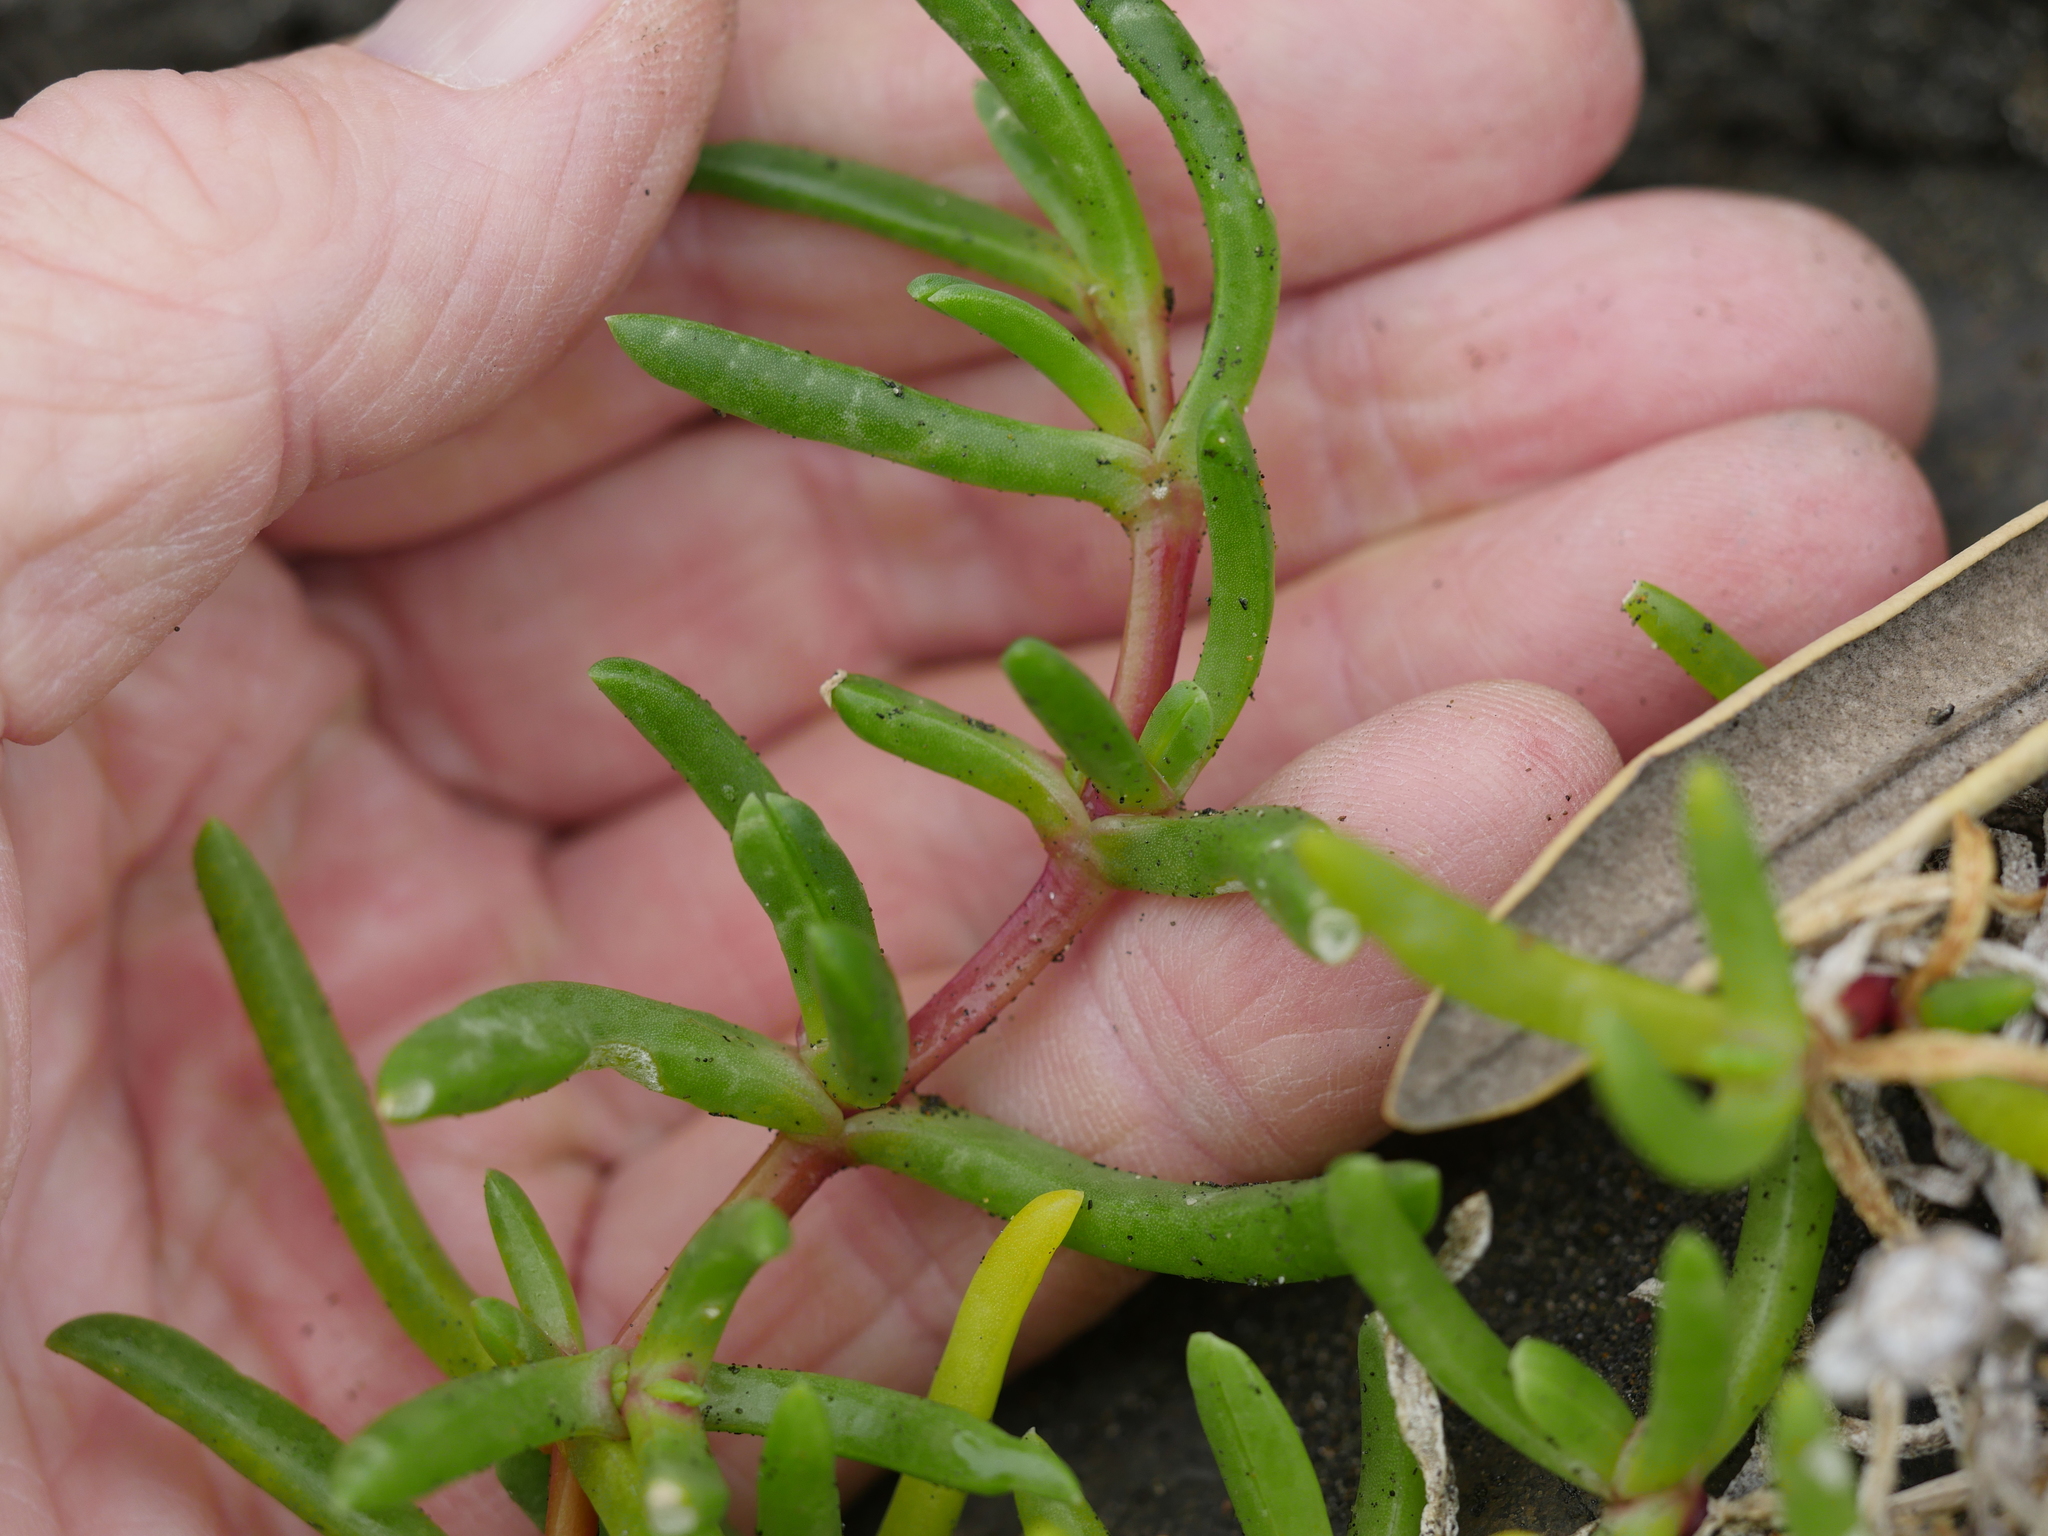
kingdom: Plantae
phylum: Tracheophyta
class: Magnoliopsida
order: Caryophyllales
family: Aizoaceae
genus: Disphyma
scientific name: Disphyma australe
